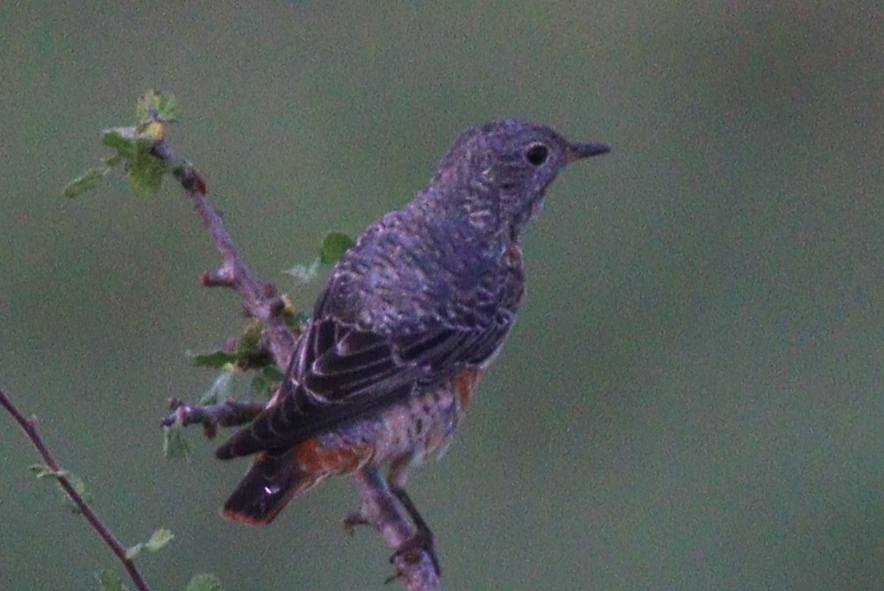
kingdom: Animalia
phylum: Chordata
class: Aves
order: Passeriformes
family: Muscicapidae
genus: Monticola
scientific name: Monticola saxatilis
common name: Rufous-tailed rock thrush
